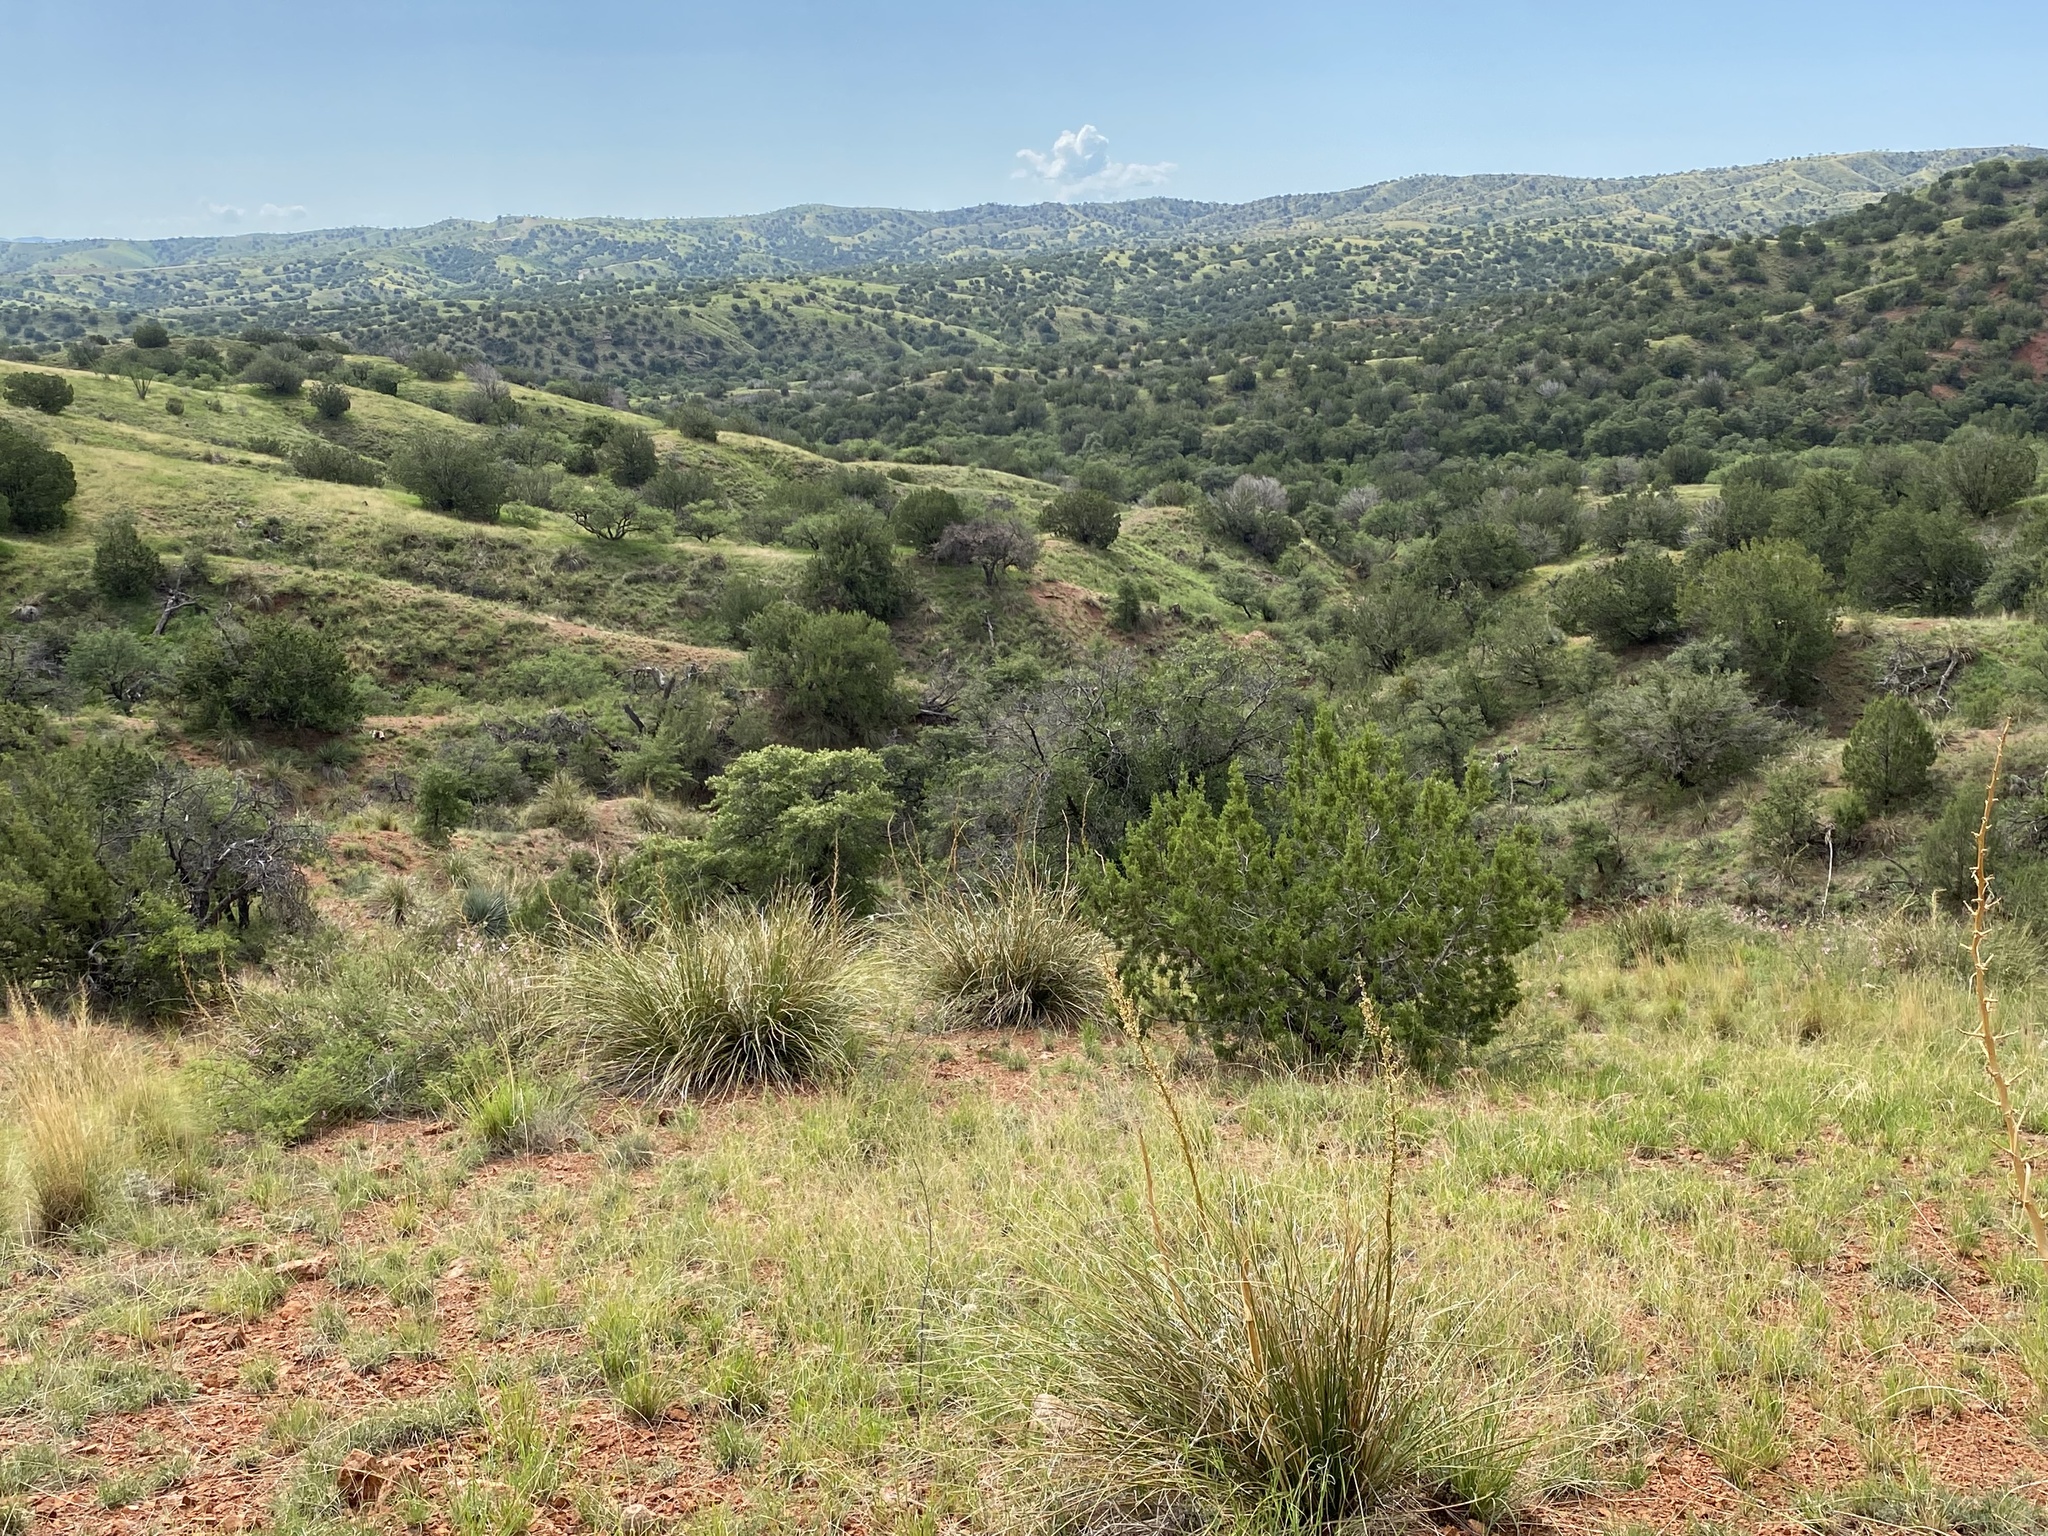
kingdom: Plantae
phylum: Tracheophyta
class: Magnoliopsida
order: Caryophyllales
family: Cactaceae
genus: Mammillaria
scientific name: Mammillaria heyderi
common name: Little nipple cactus
